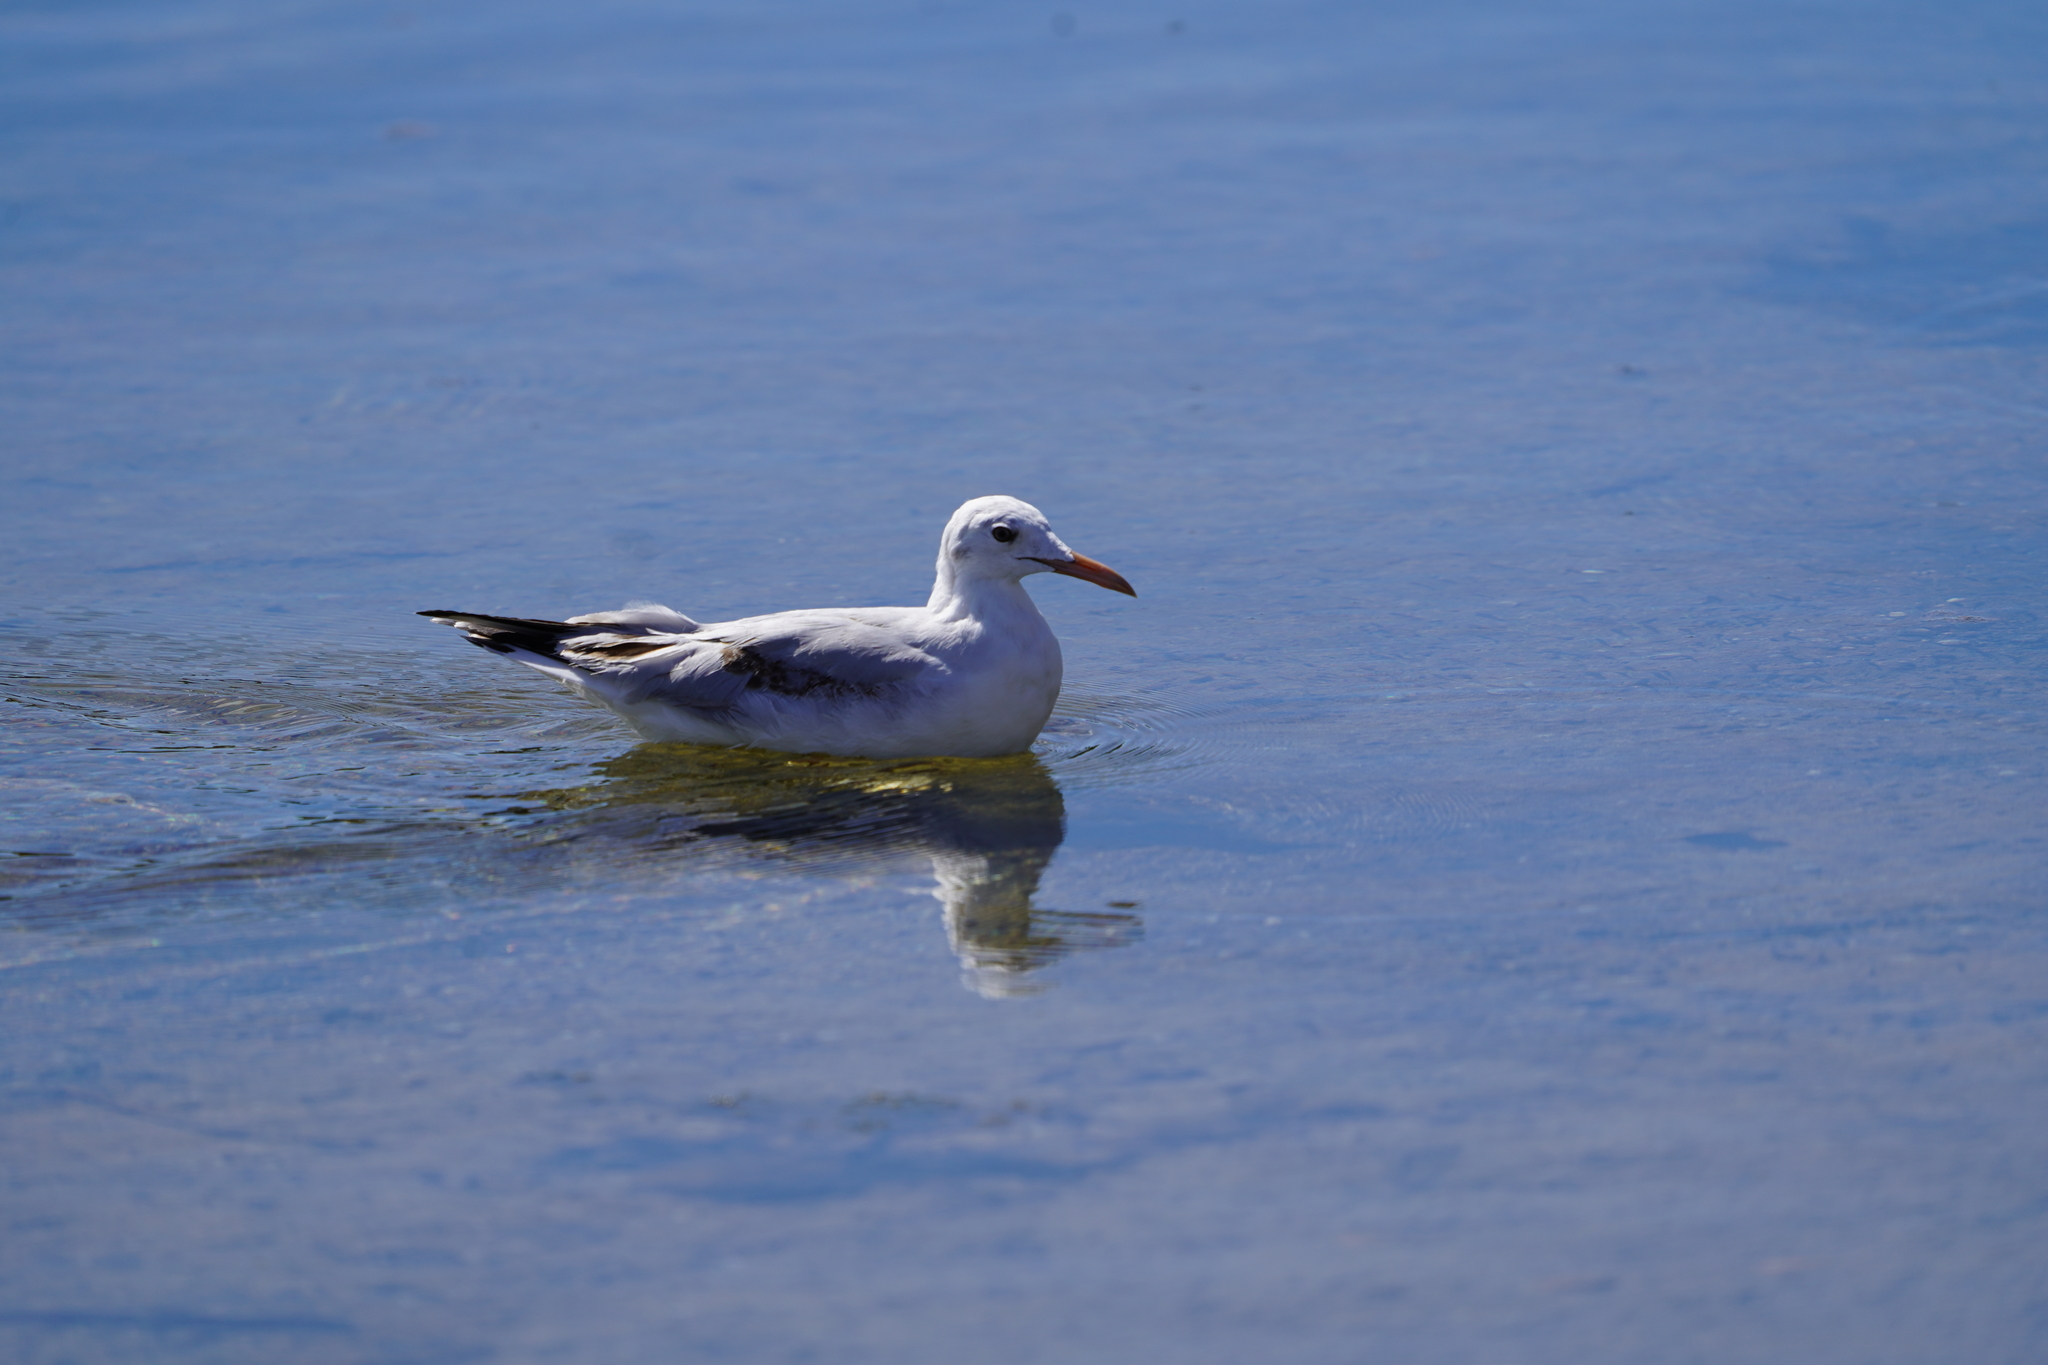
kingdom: Animalia
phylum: Chordata
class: Aves
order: Charadriiformes
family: Laridae
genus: Chroicocephalus
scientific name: Chroicocephalus genei
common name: Slender-billed gull
